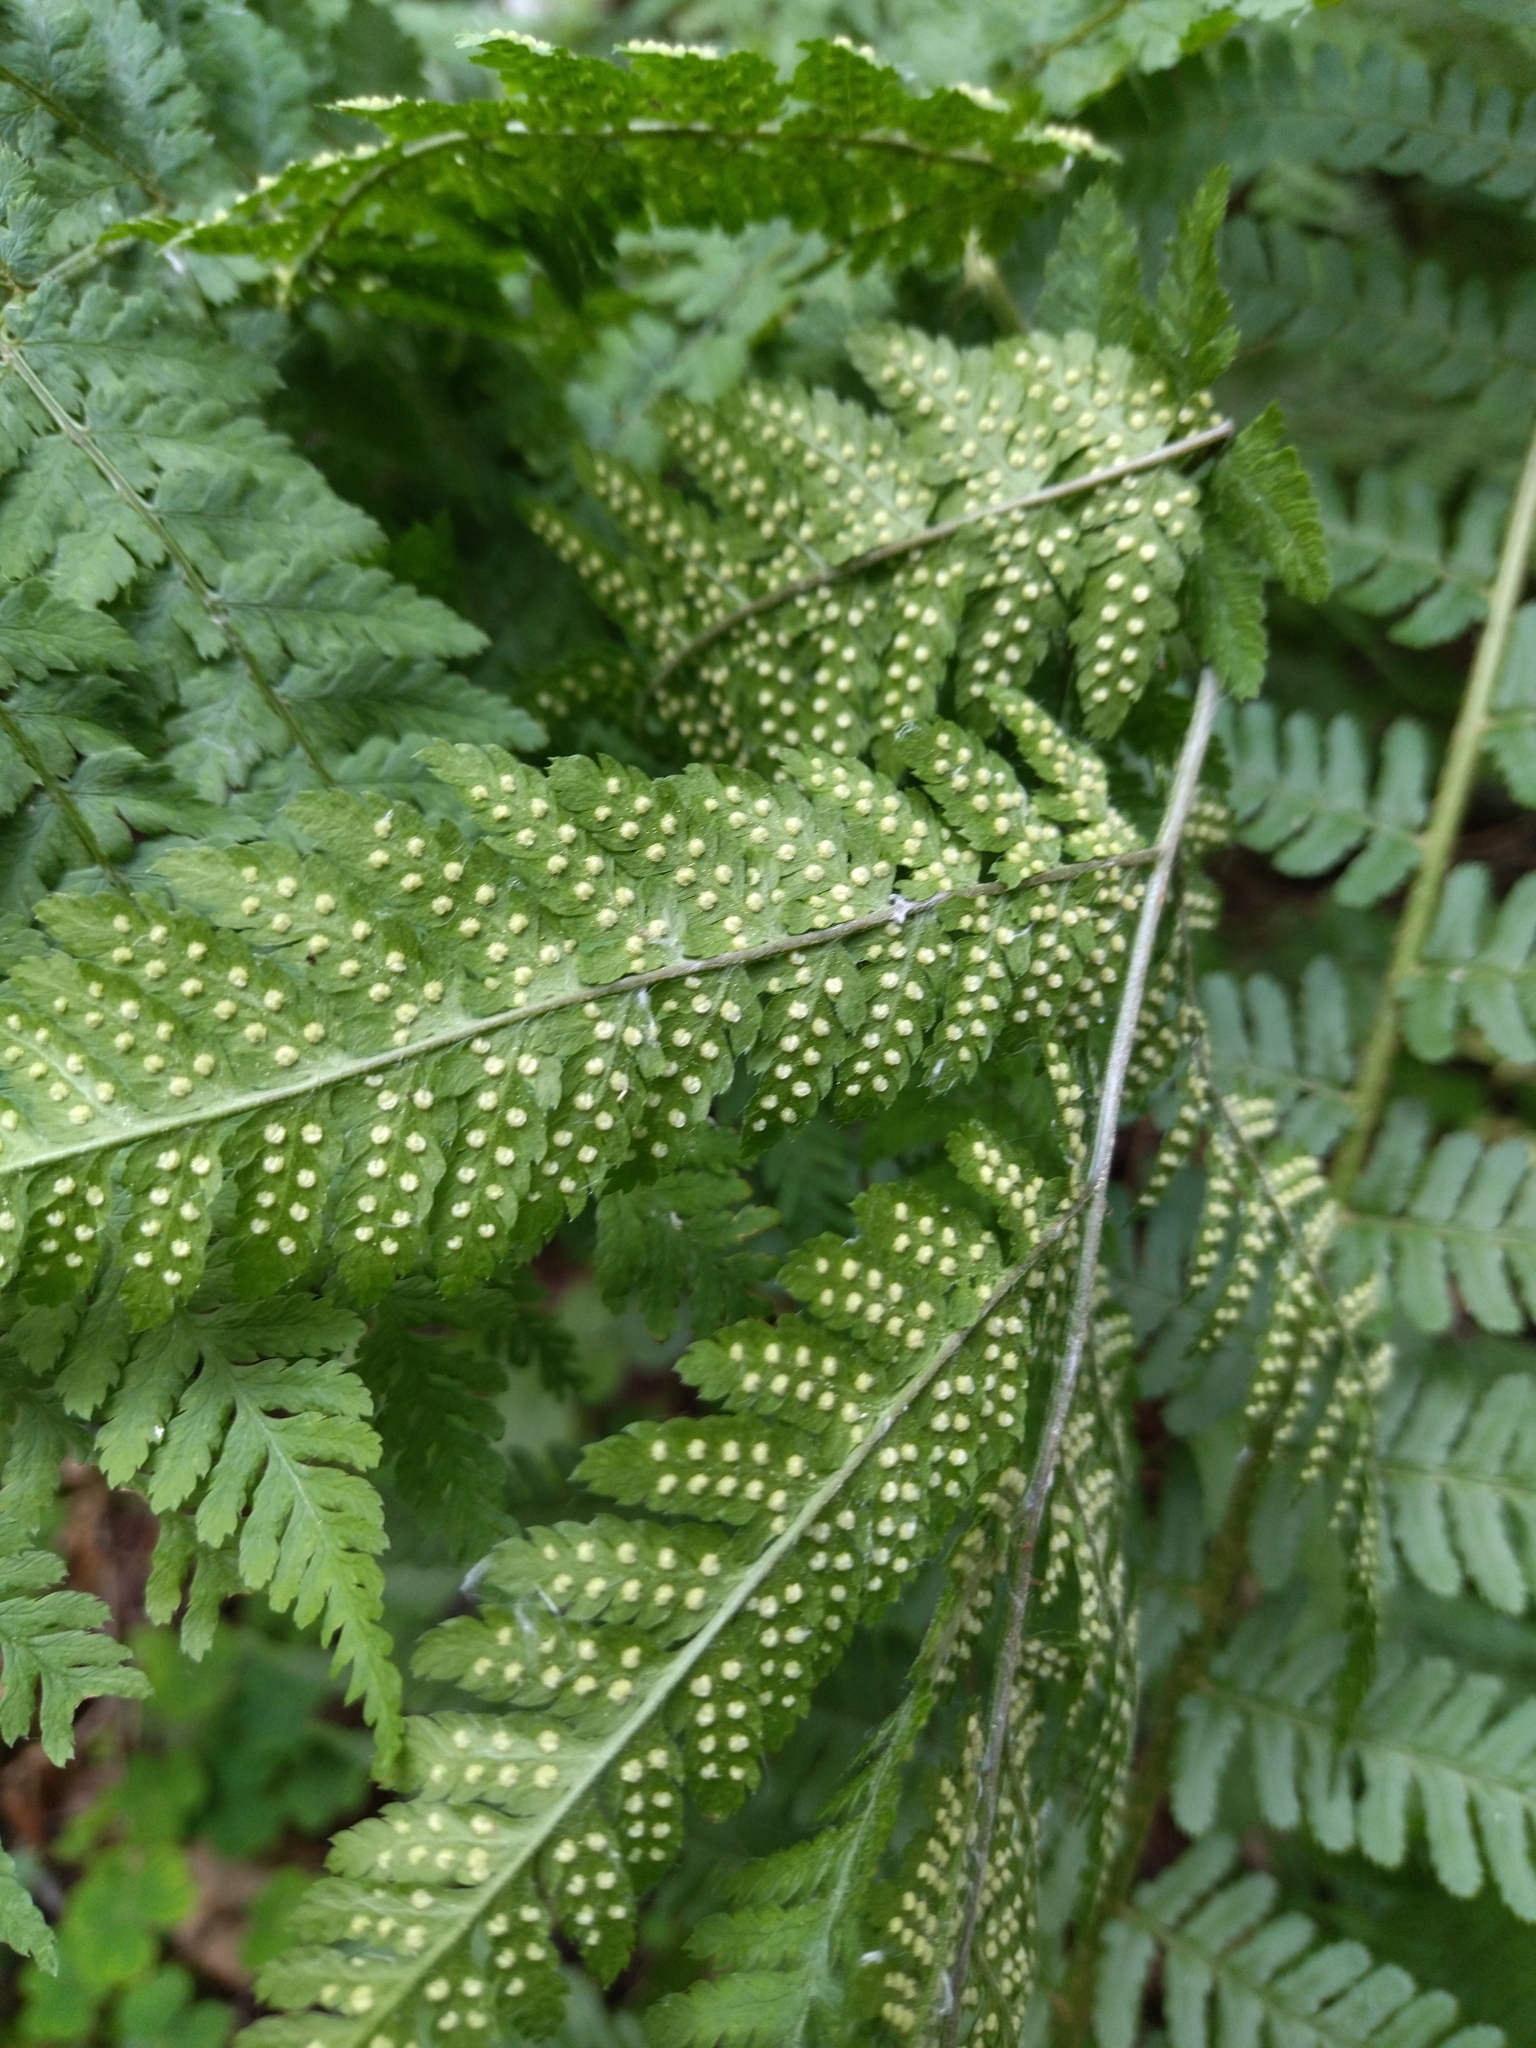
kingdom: Plantae
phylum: Tracheophyta
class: Polypodiopsida
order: Polypodiales
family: Dryopteridaceae
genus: Dryopteris
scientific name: Dryopteris filix-mas
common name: Male fern
